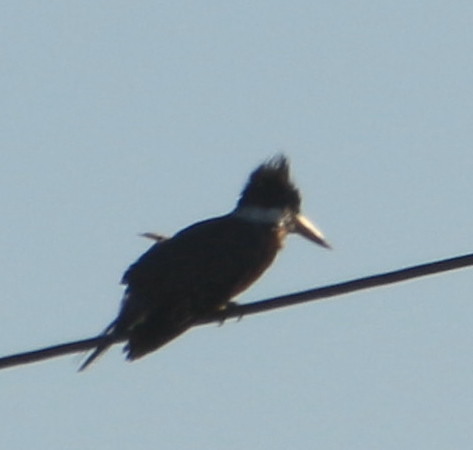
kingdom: Animalia
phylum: Chordata
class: Aves
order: Coraciiformes
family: Alcedinidae
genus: Megaceryle
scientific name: Megaceryle torquata
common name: Ringed kingfisher
